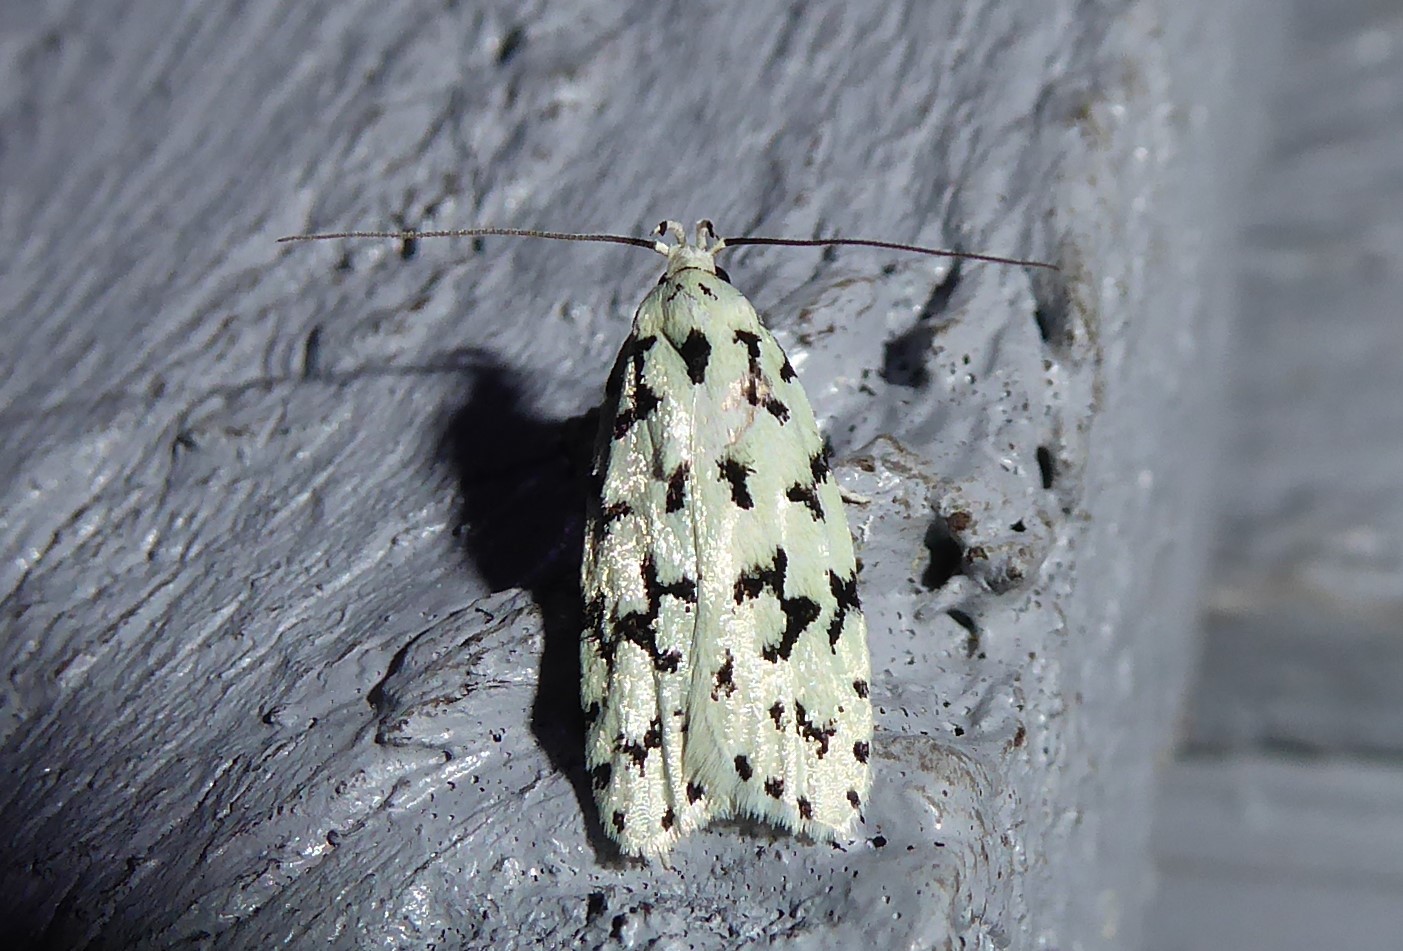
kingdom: Animalia
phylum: Arthropoda
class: Insecta
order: Lepidoptera
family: Oecophoridae
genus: Izatha
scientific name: Izatha huttoni
